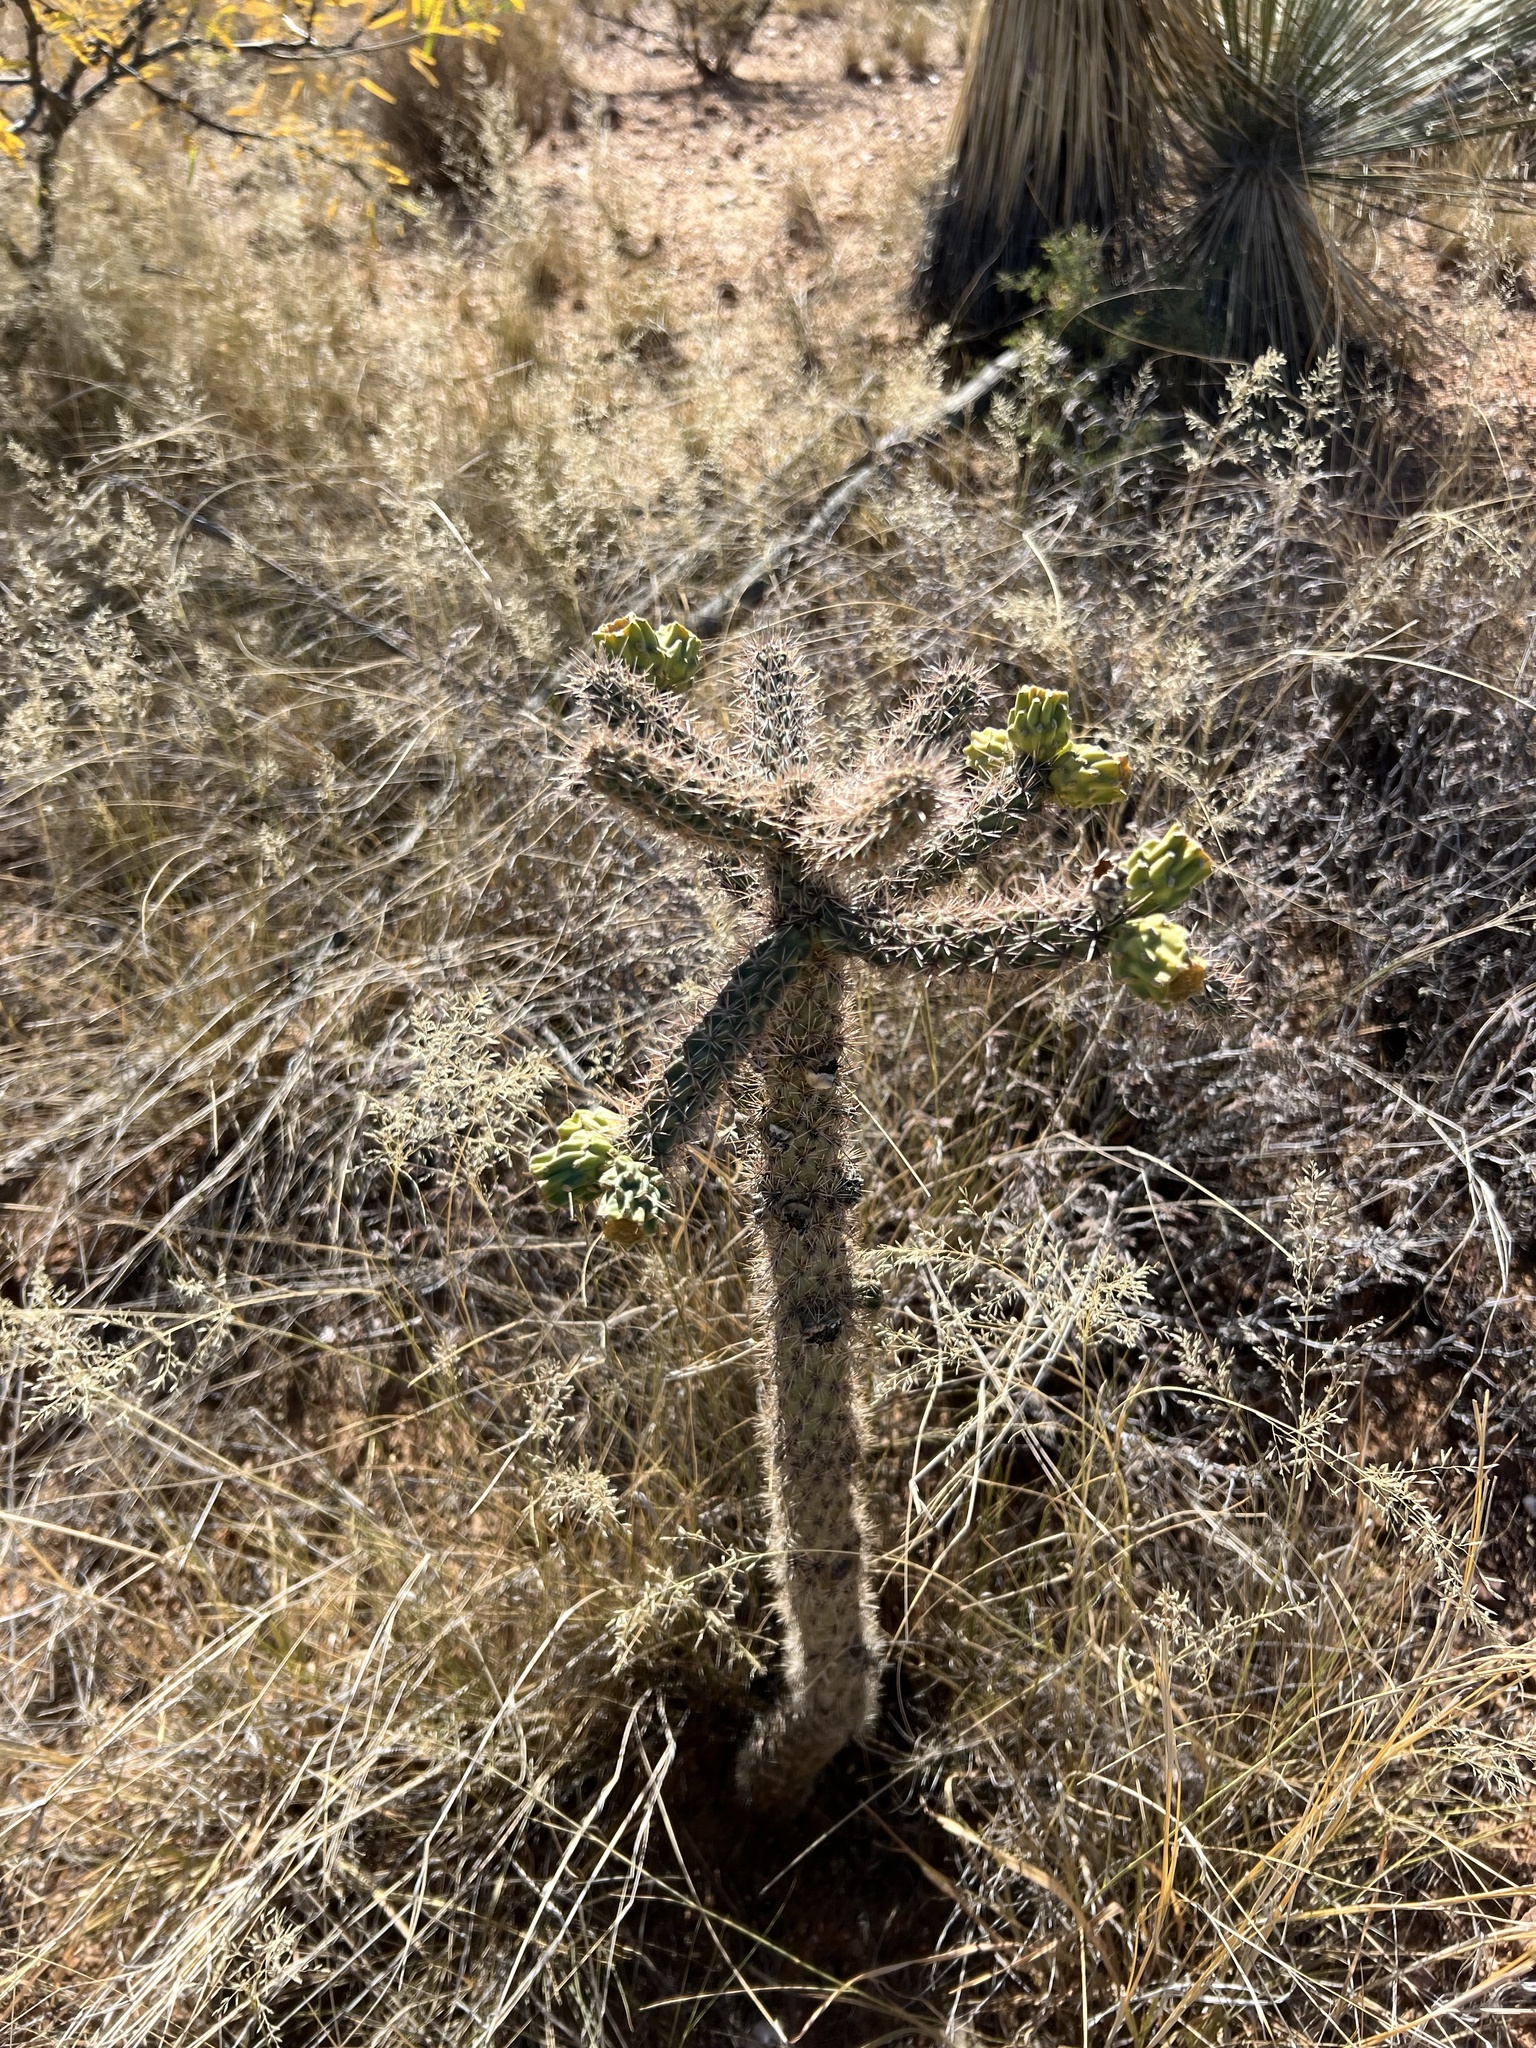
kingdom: Plantae
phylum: Tracheophyta
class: Magnoliopsida
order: Caryophyllales
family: Cactaceae
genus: Cylindropuntia
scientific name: Cylindropuntia imbricata
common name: Candelabrum cactus
